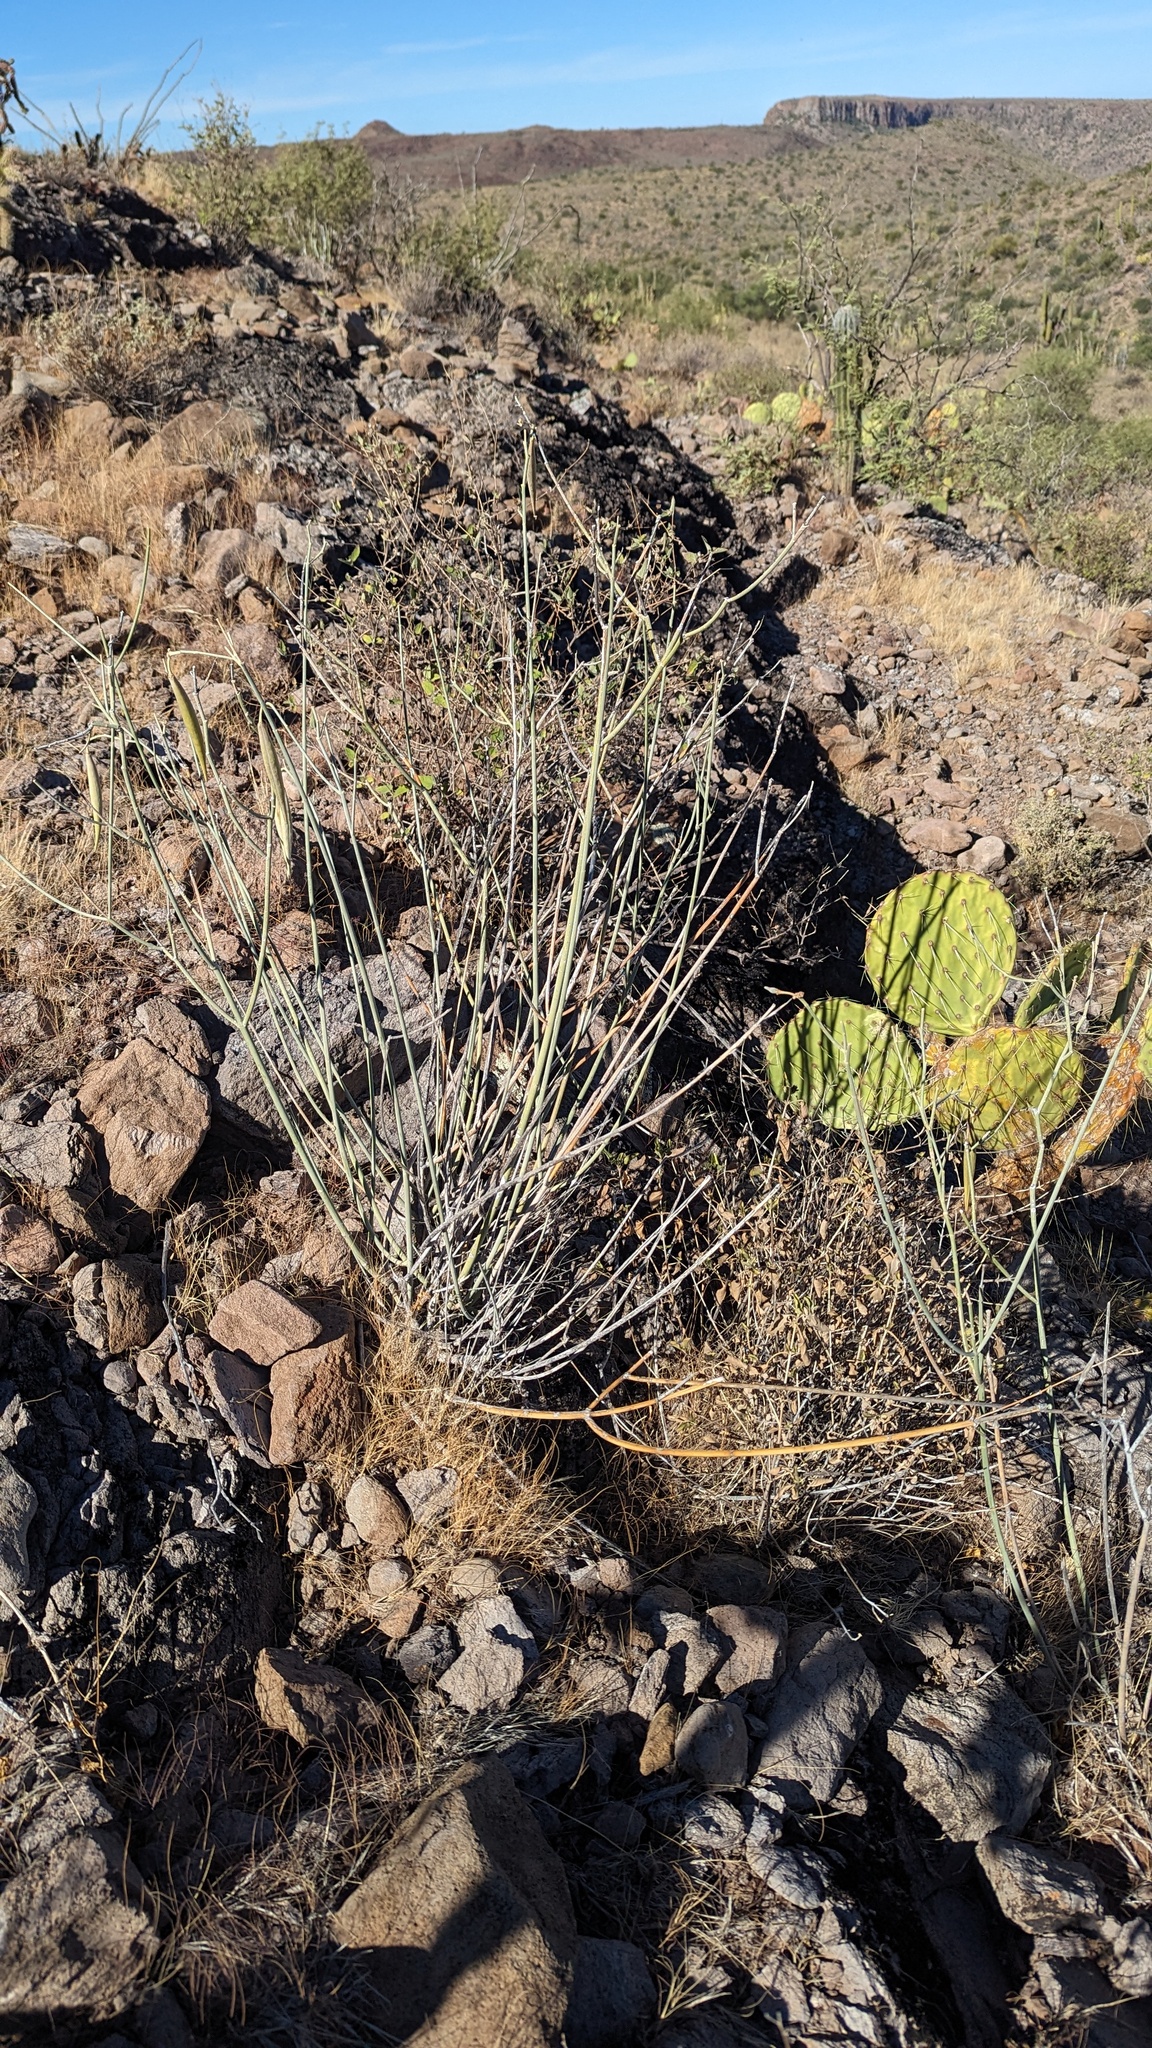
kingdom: Plantae
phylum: Tracheophyta
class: Magnoliopsida
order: Gentianales
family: Apocynaceae
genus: Asclepias
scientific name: Asclepias subulata
